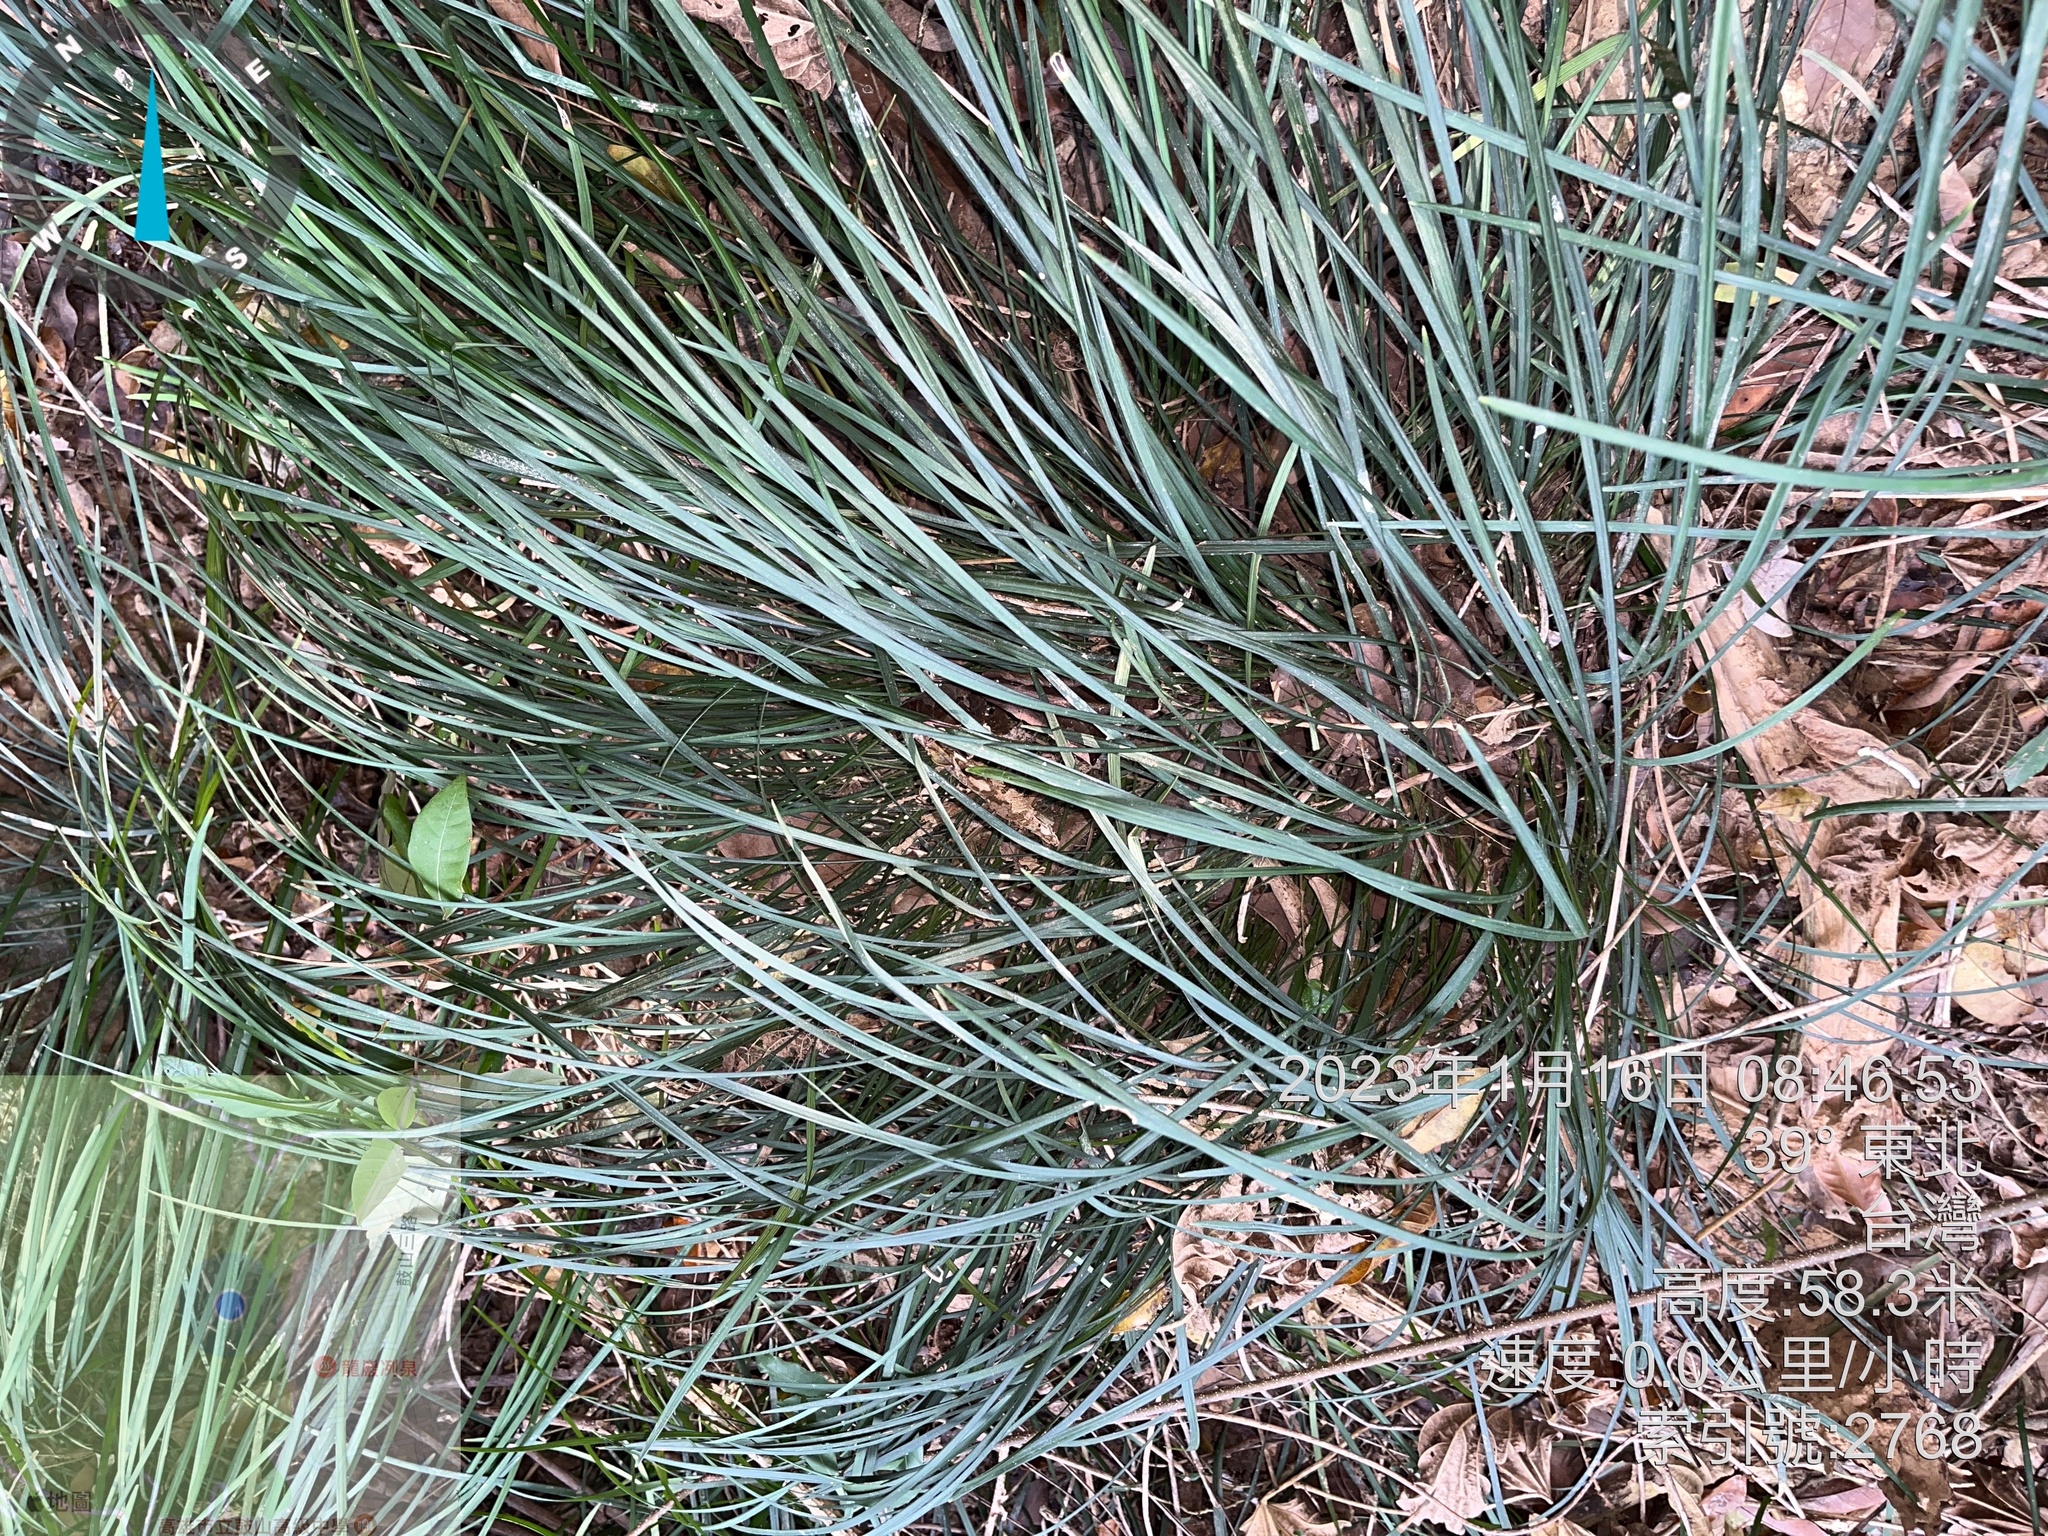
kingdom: Plantae
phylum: Tracheophyta
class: Liliopsida
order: Asparagales
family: Asparagaceae
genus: Ophiopogon
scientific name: Ophiopogon reversus
